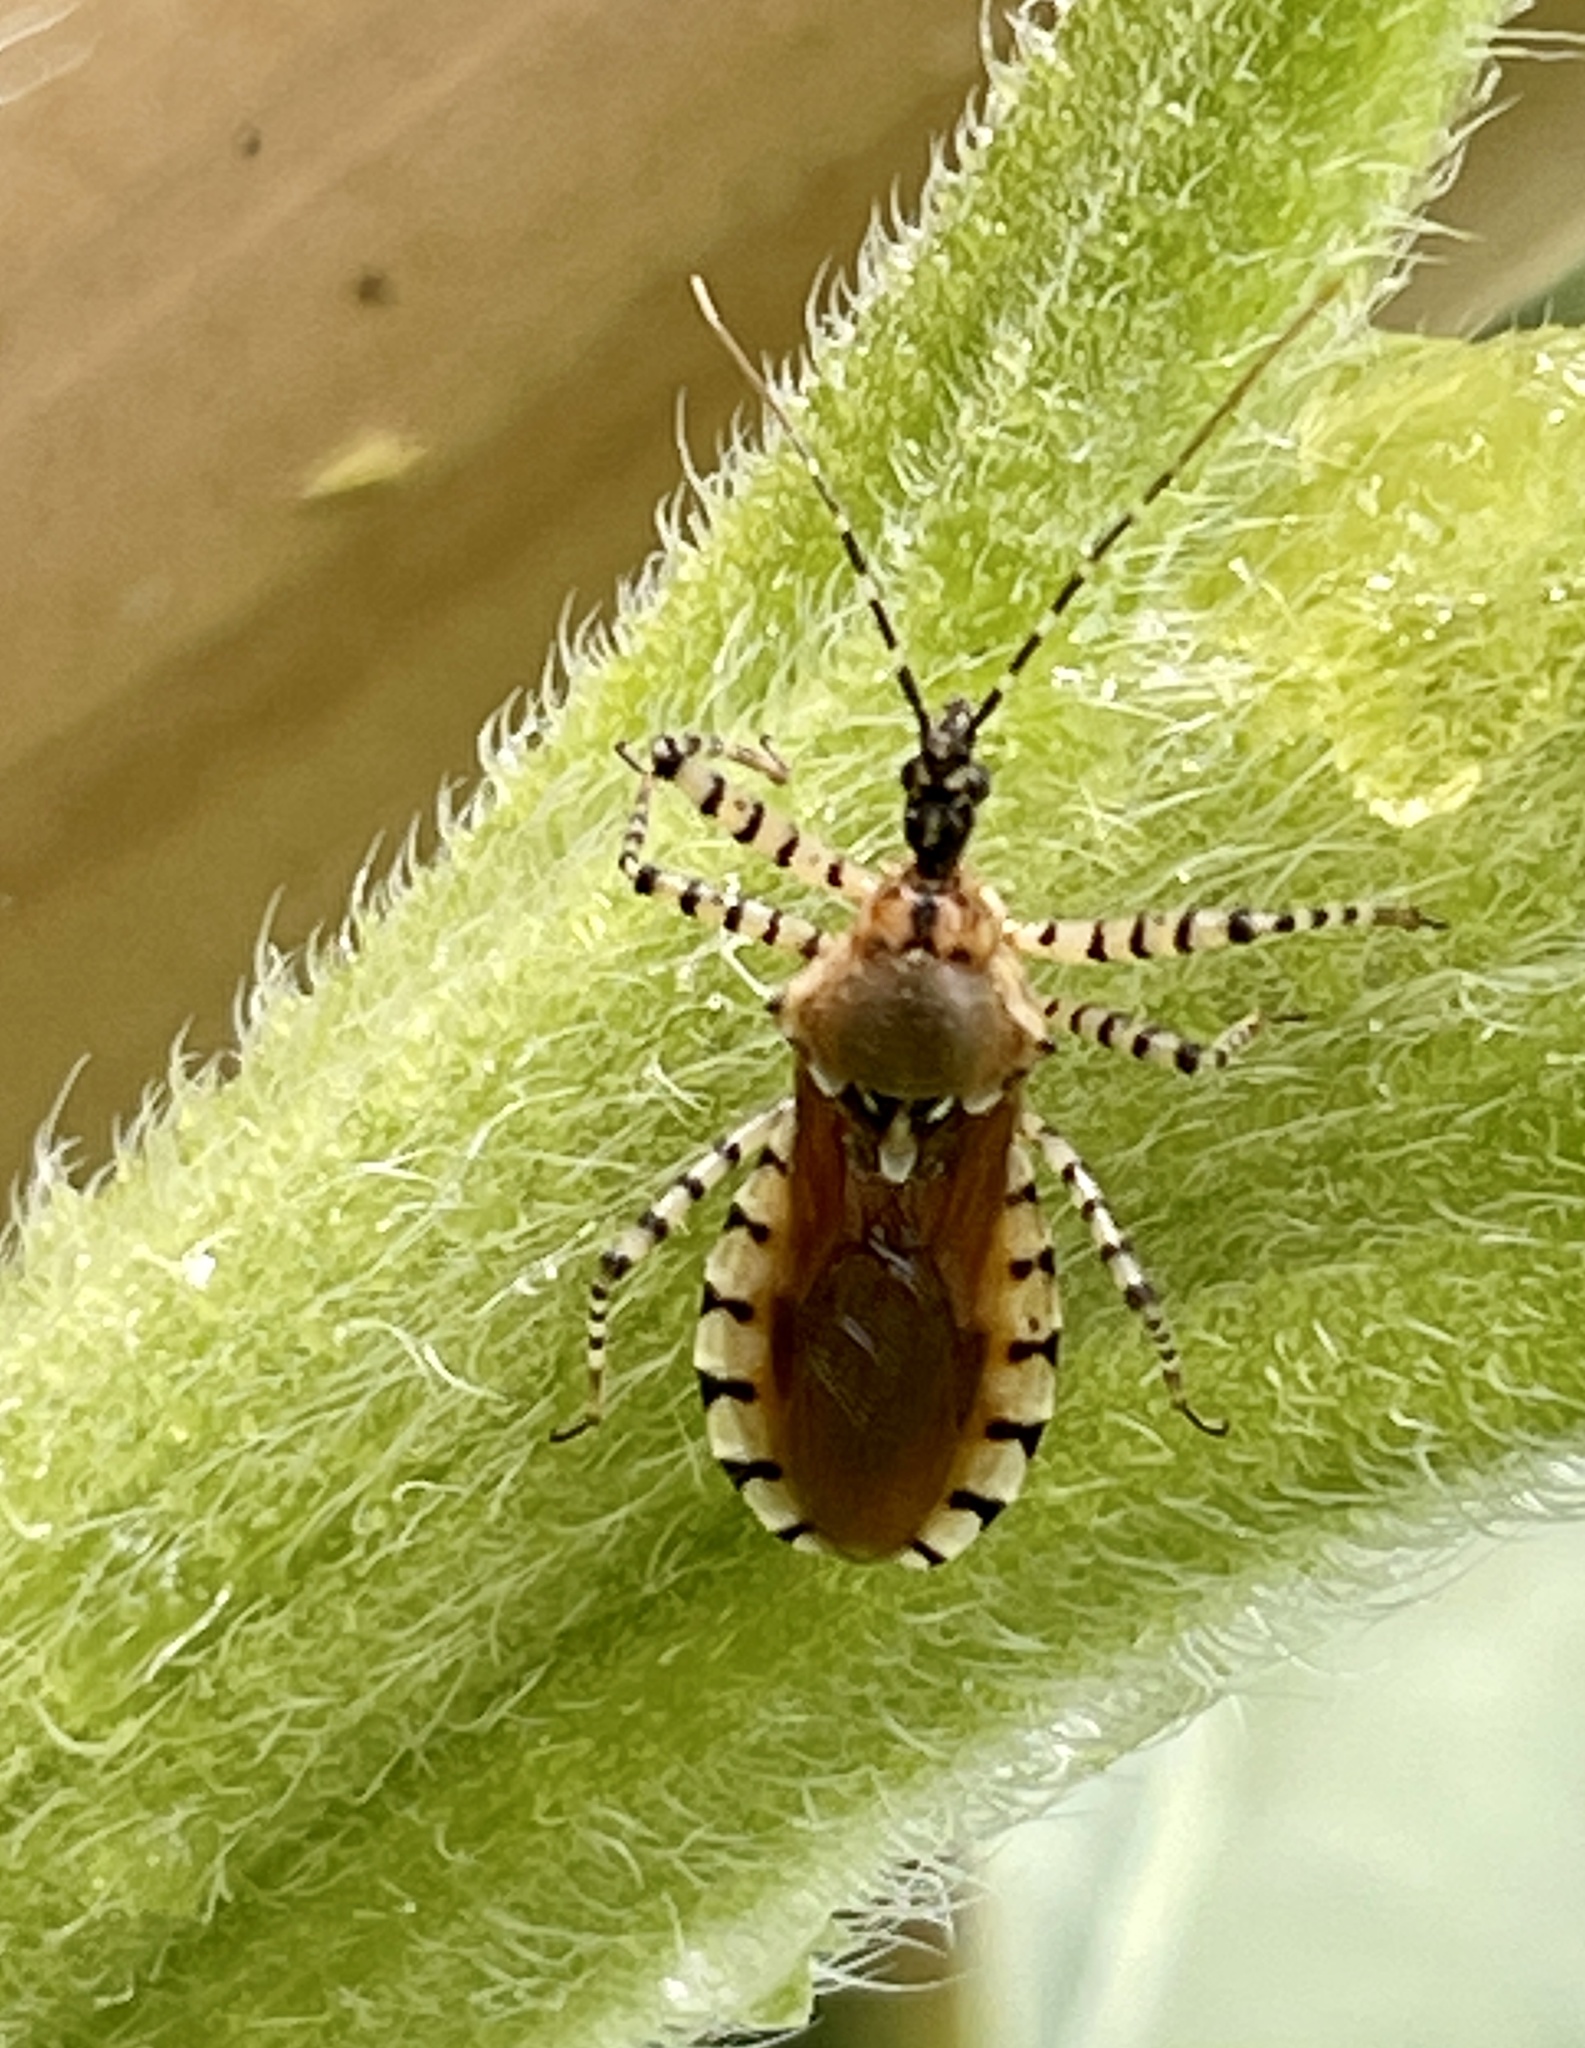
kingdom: Animalia
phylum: Arthropoda
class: Insecta
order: Hemiptera
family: Reduviidae
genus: Pselliopus
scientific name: Pselliopus cinctus
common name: Ringed assassin bug
